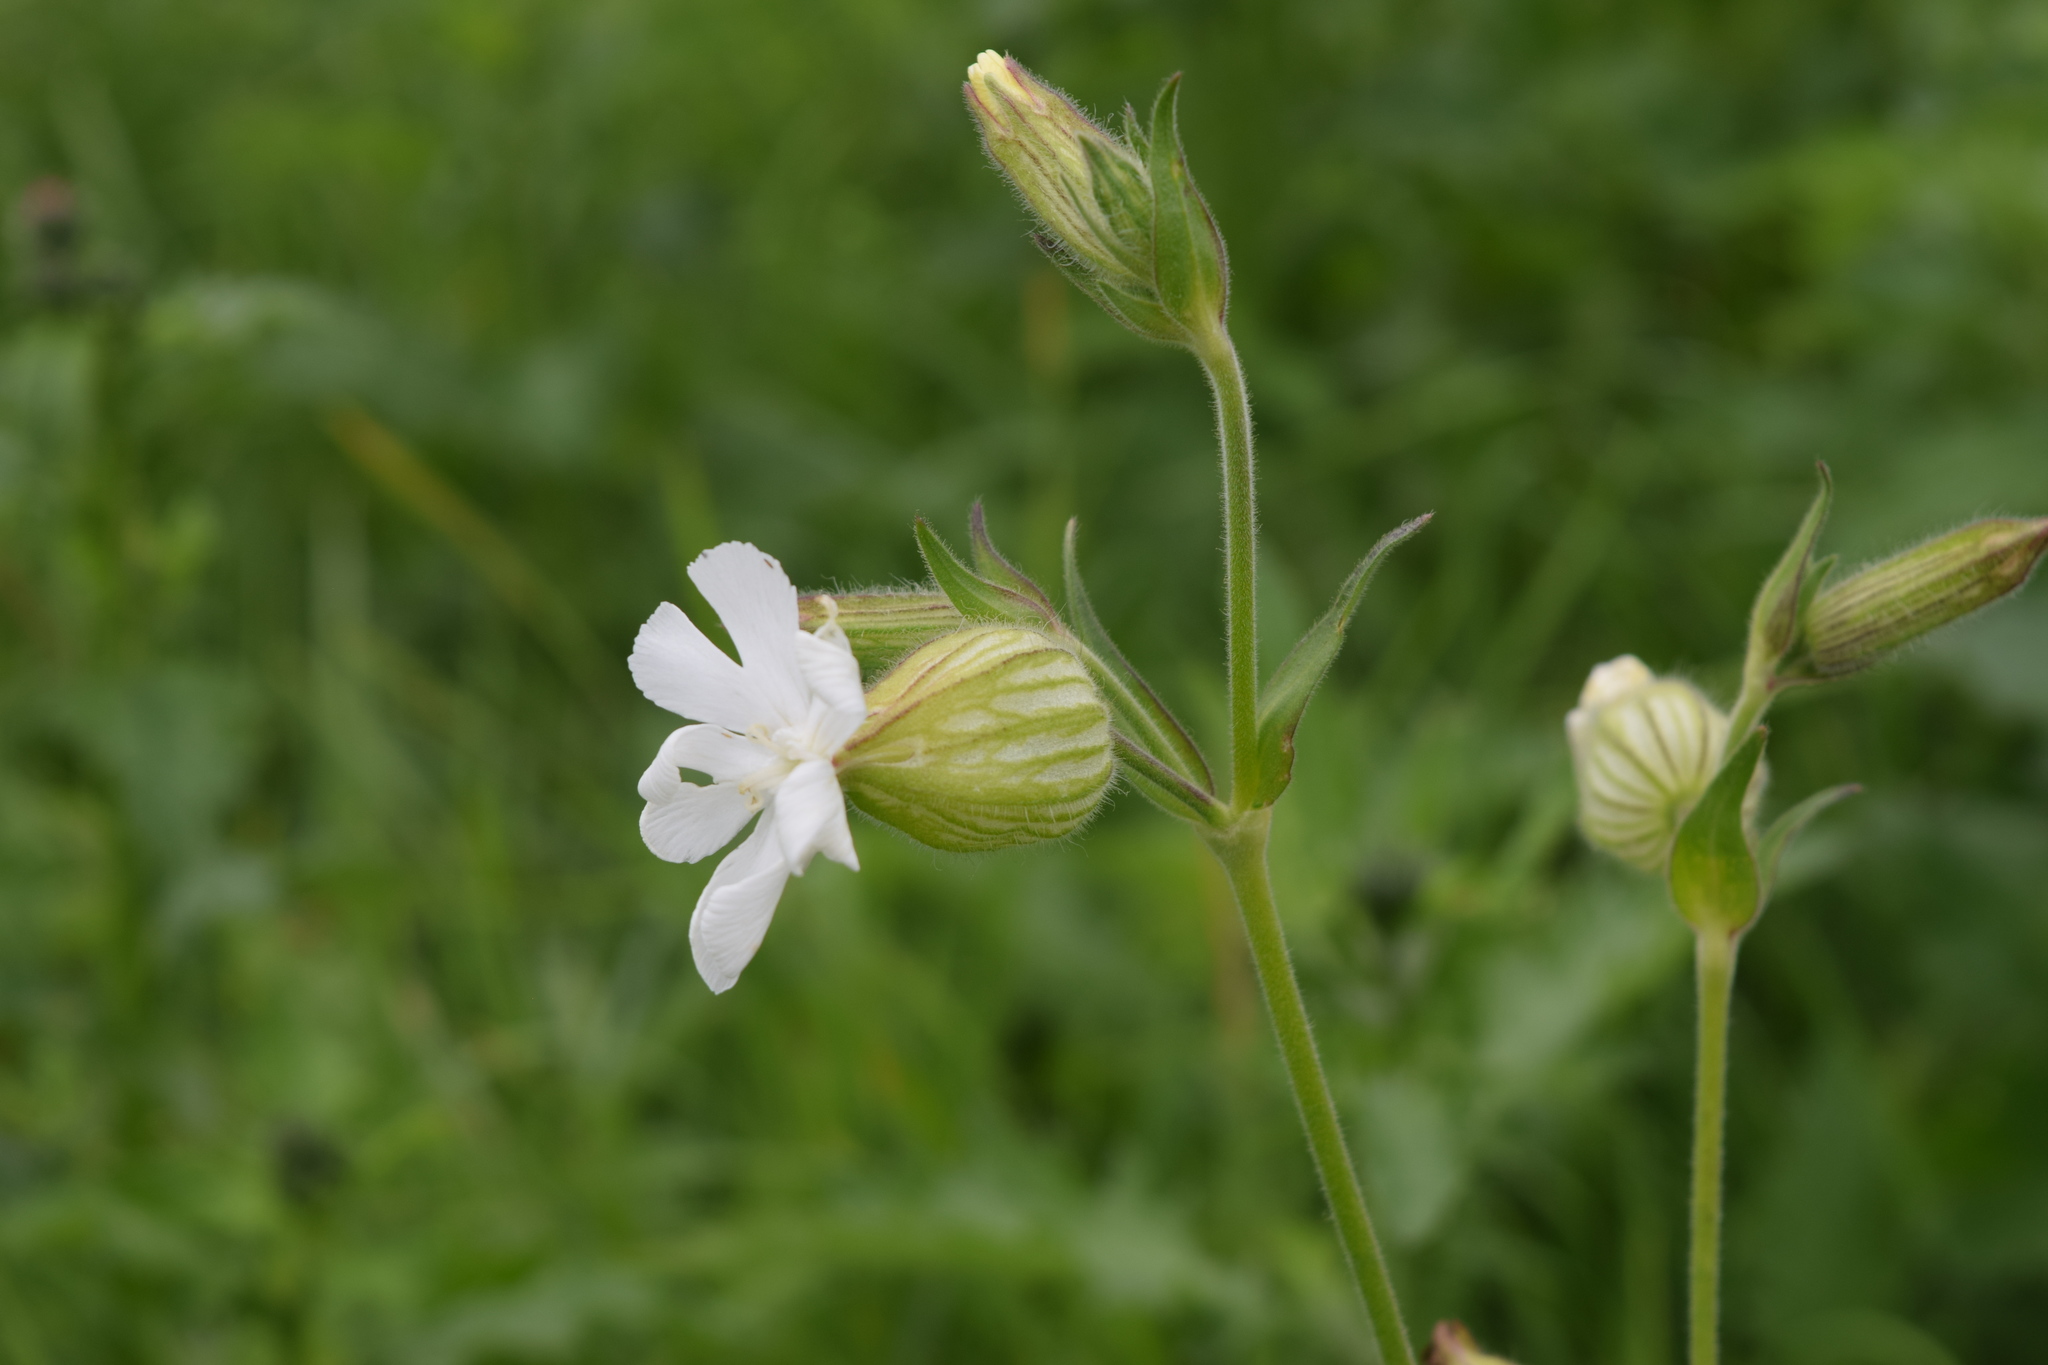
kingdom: Plantae
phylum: Tracheophyta
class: Magnoliopsida
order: Caryophyllales
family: Caryophyllaceae
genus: Silene
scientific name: Silene latifolia
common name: White campion
